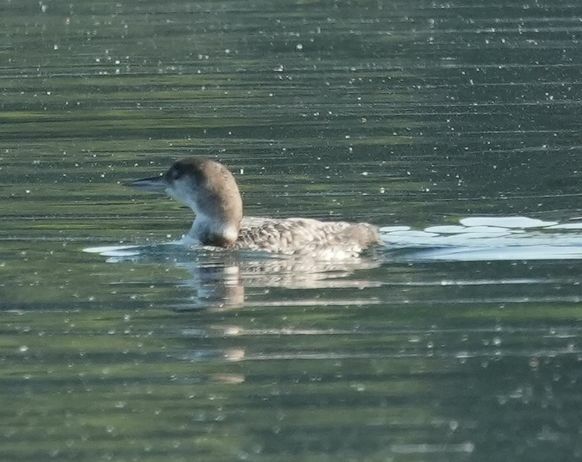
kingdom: Animalia
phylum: Chordata
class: Aves
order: Gaviiformes
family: Gaviidae
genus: Gavia
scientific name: Gavia immer
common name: Common loon
